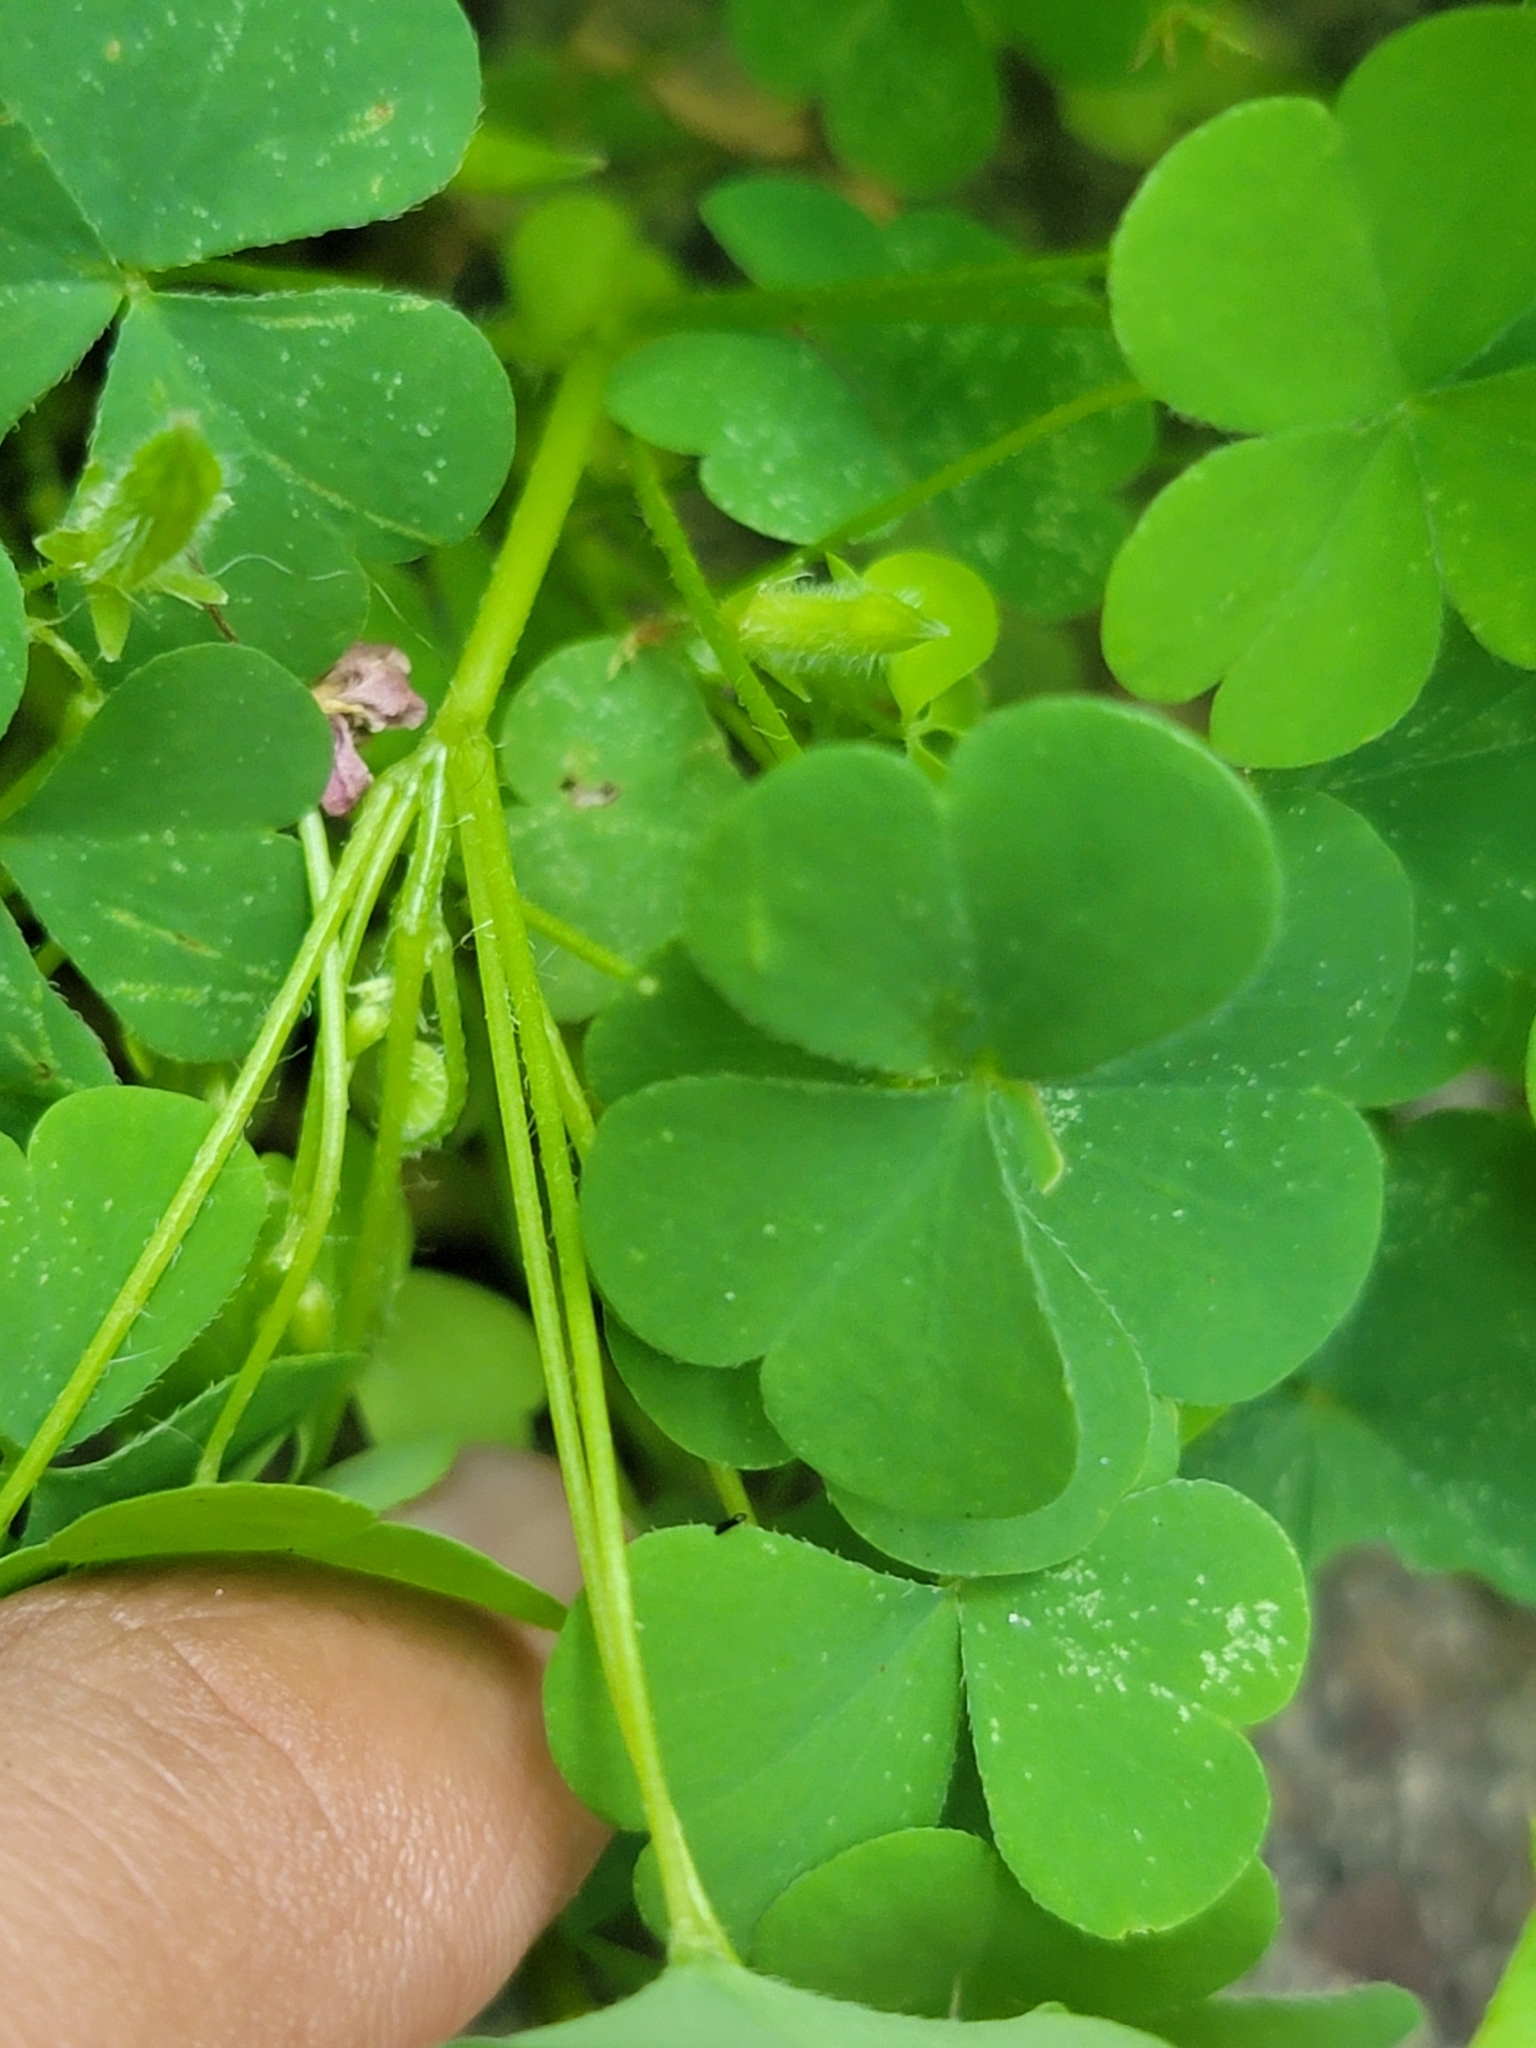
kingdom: Plantae
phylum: Tracheophyta
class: Magnoliopsida
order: Oxalidales
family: Oxalidaceae
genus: Oxalis
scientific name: Oxalis stricta
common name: Upright yellow-sorrel
